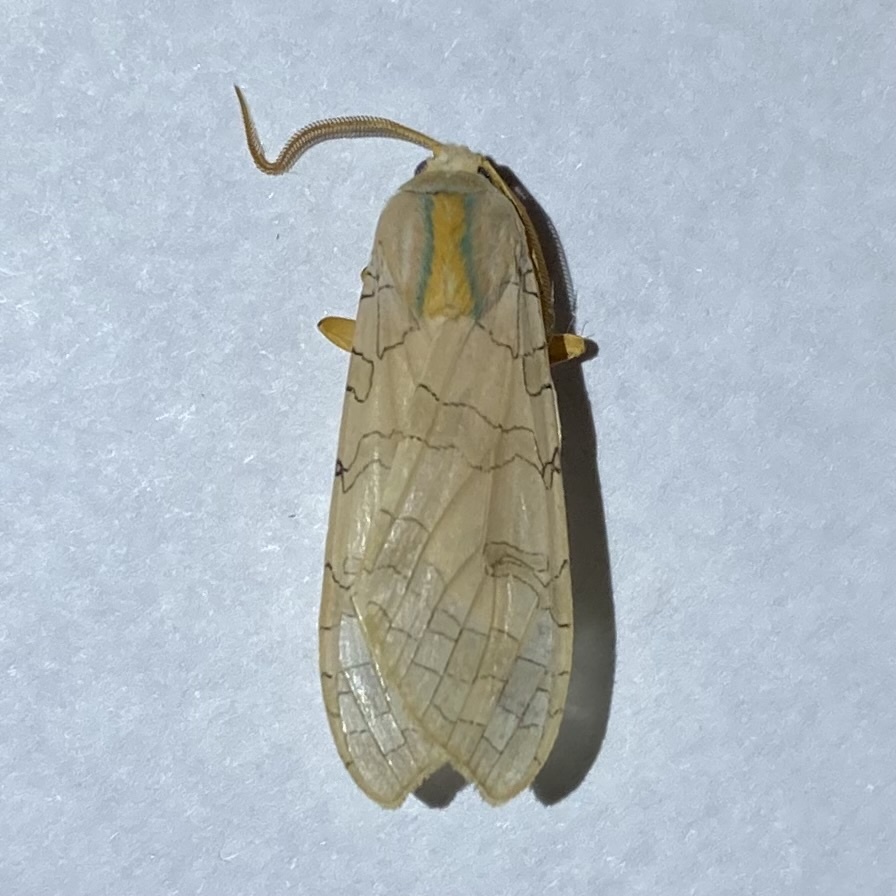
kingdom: Animalia
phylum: Arthropoda
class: Insecta
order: Lepidoptera
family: Erebidae
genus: Halysidota
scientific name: Halysidota tessellaris
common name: Banded tussock moth
